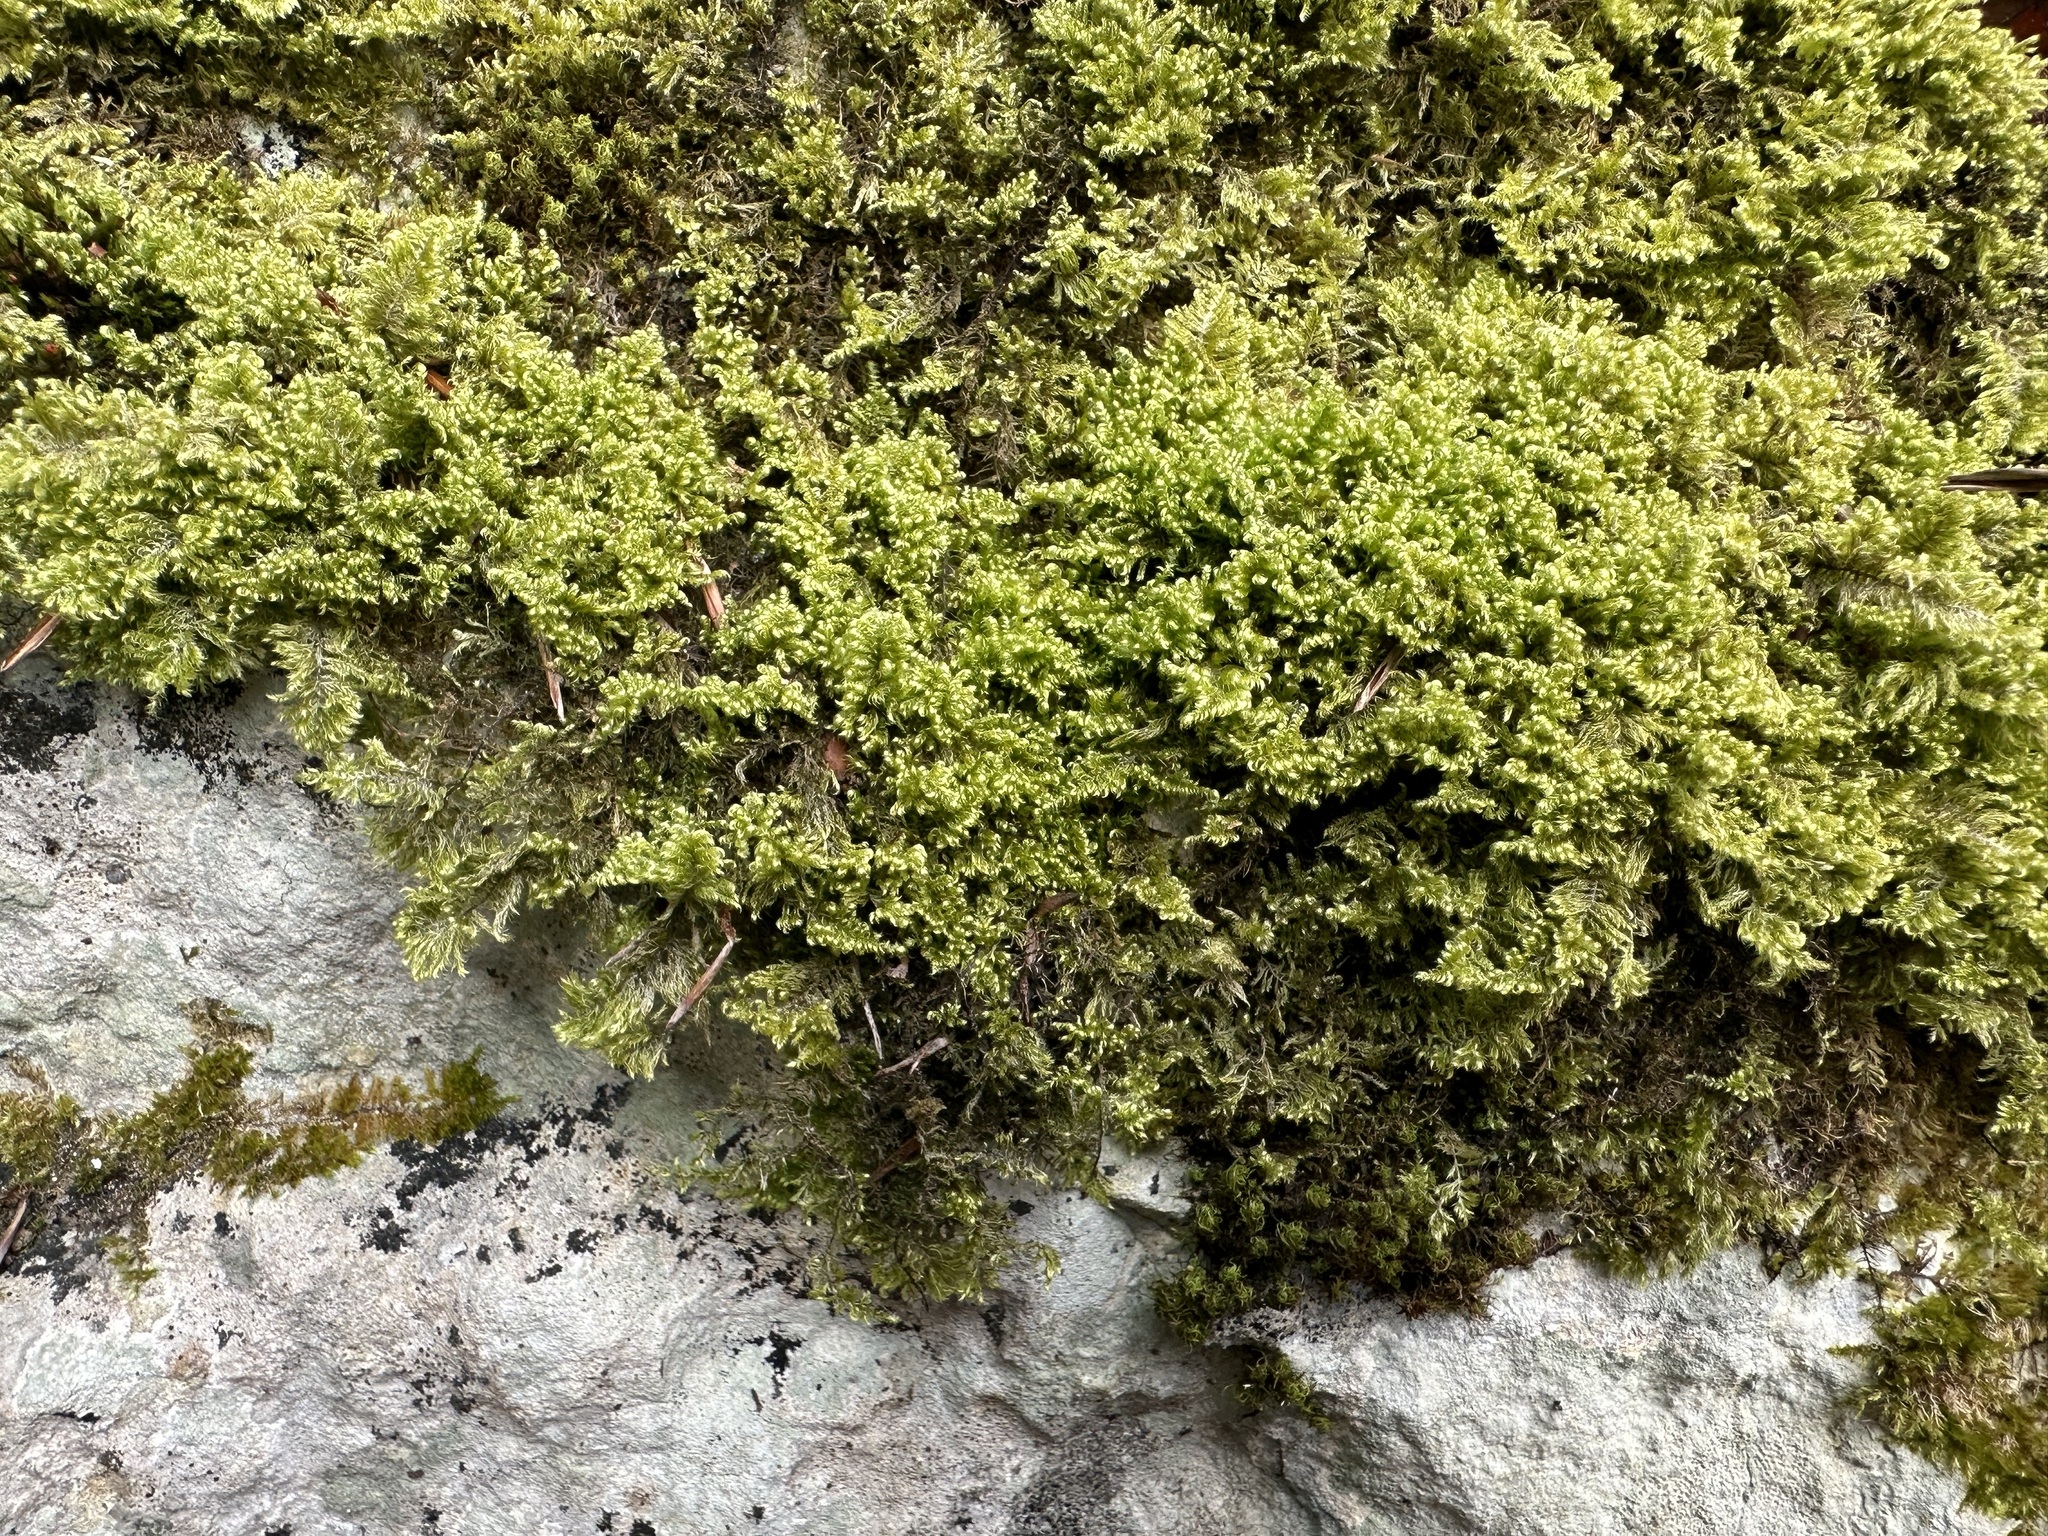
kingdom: Plantae
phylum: Bryophyta
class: Bryopsida
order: Hypnales
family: Myuriaceae
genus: Ctenidium
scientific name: Ctenidium molluscum
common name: Chalk comb-moss
